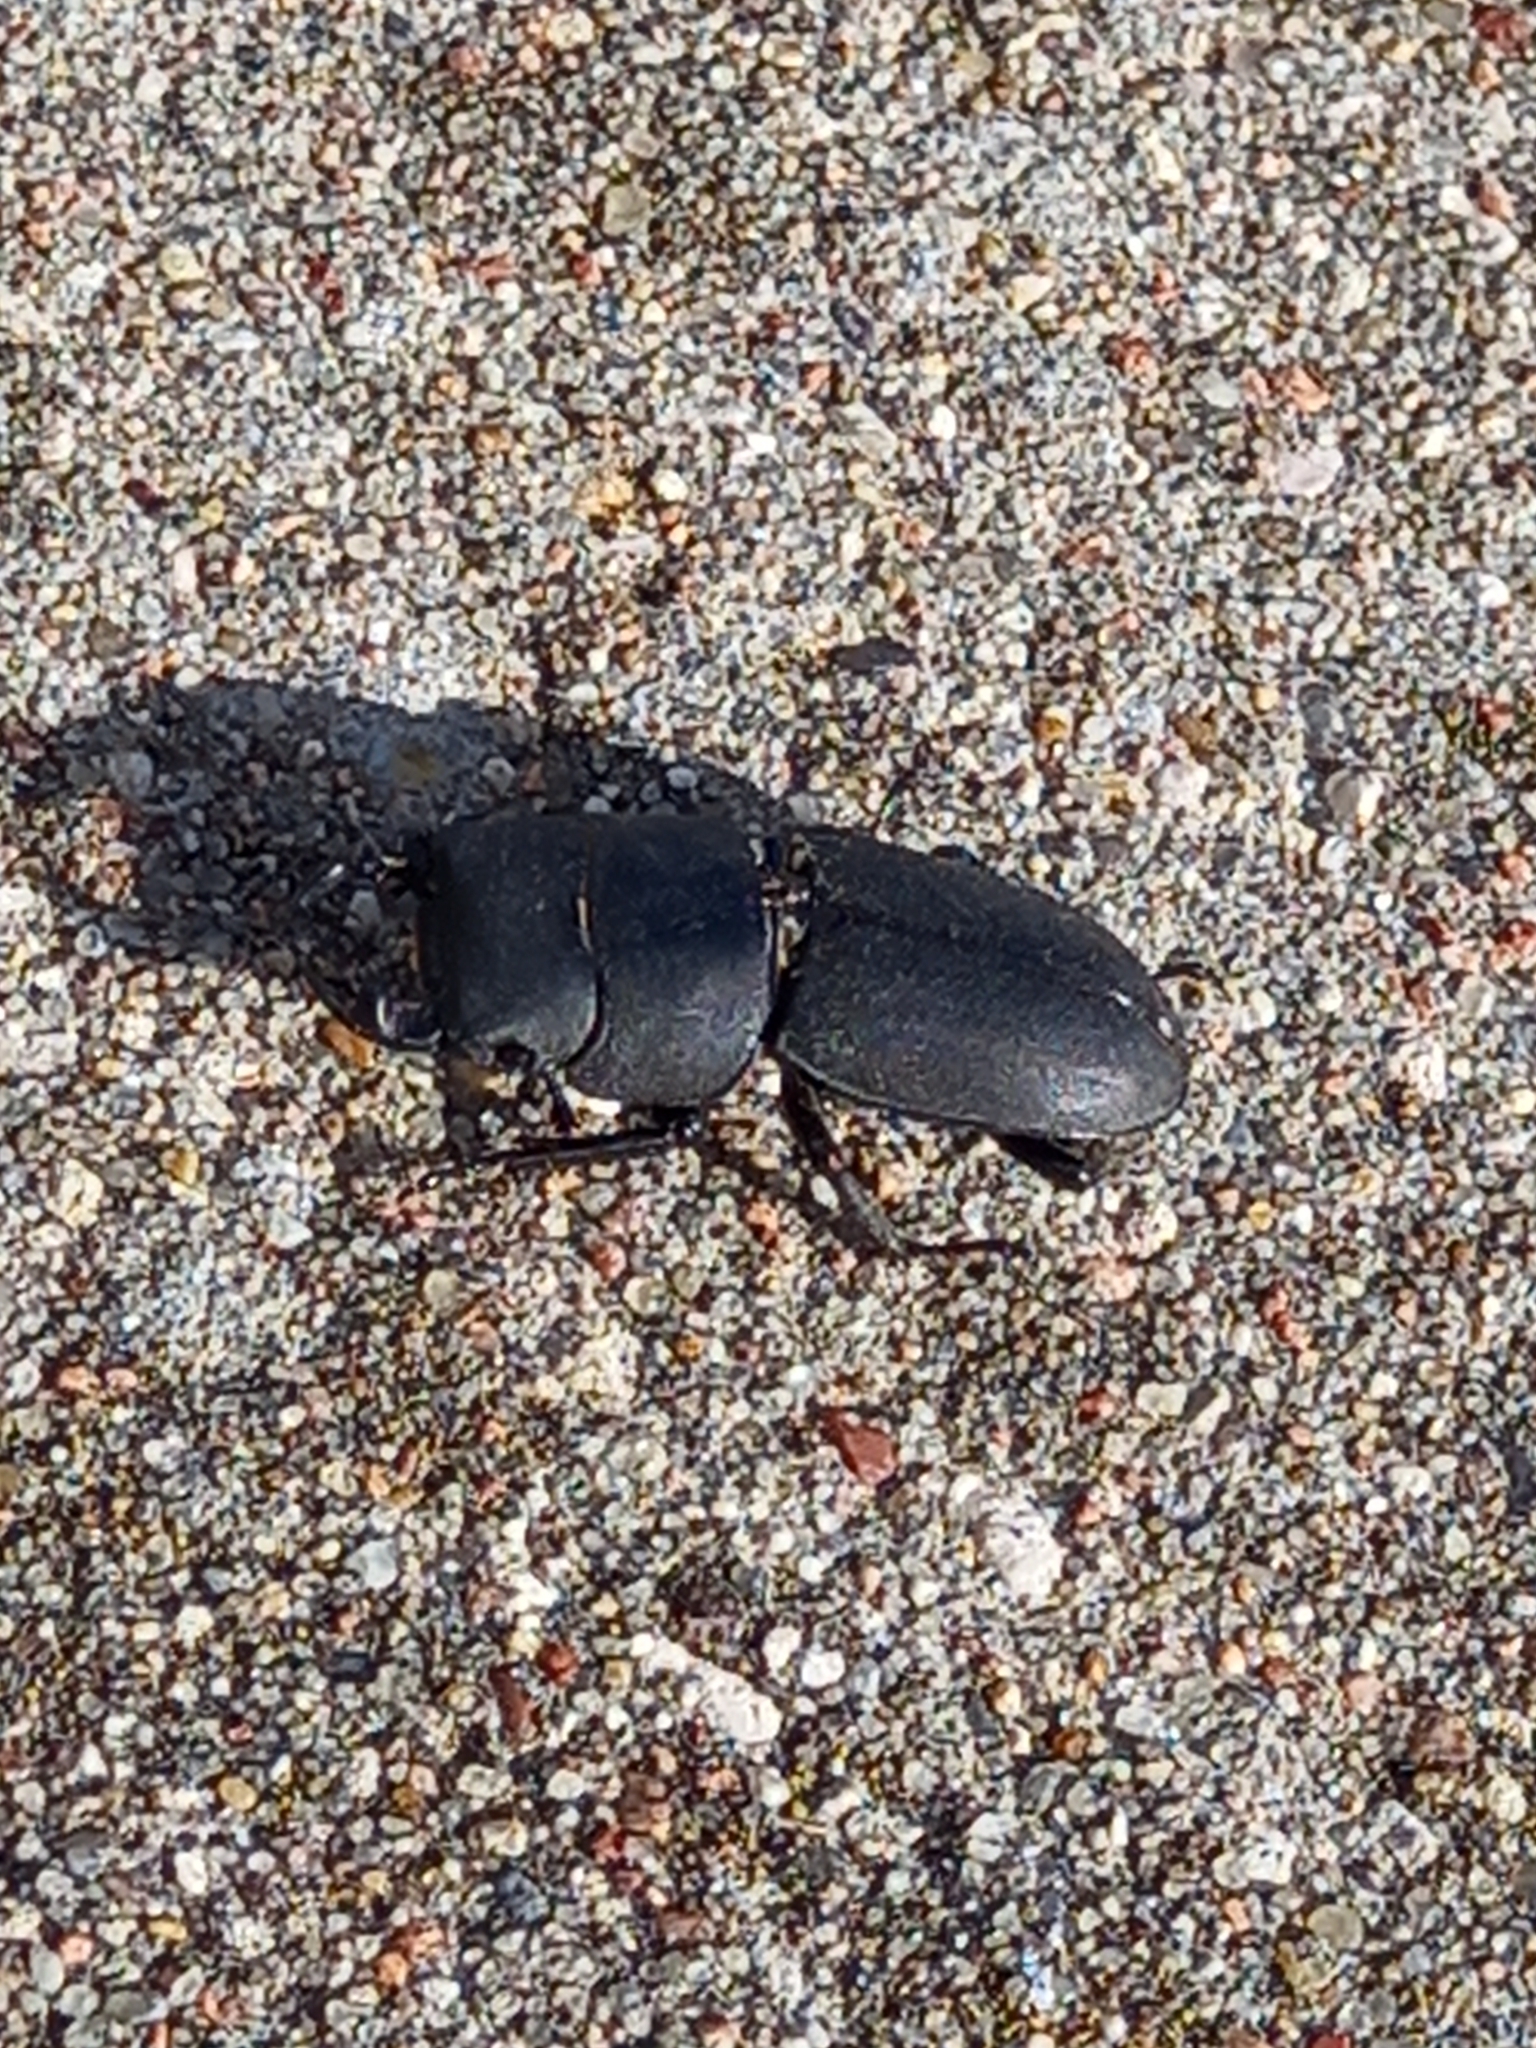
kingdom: Animalia
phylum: Arthropoda
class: Insecta
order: Coleoptera
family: Lucanidae
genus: Dorcus
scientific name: Dorcus parallelipipedus
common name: Lesser stag beetle
